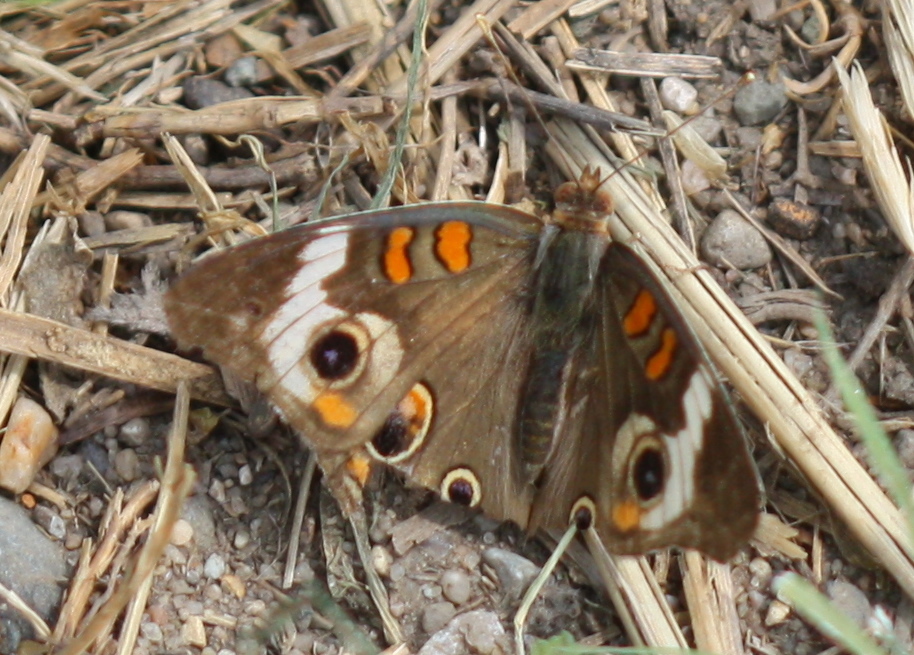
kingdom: Animalia
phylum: Arthropoda
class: Insecta
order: Lepidoptera
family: Nymphalidae
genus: Junonia
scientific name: Junonia coenia
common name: Common buckeye
